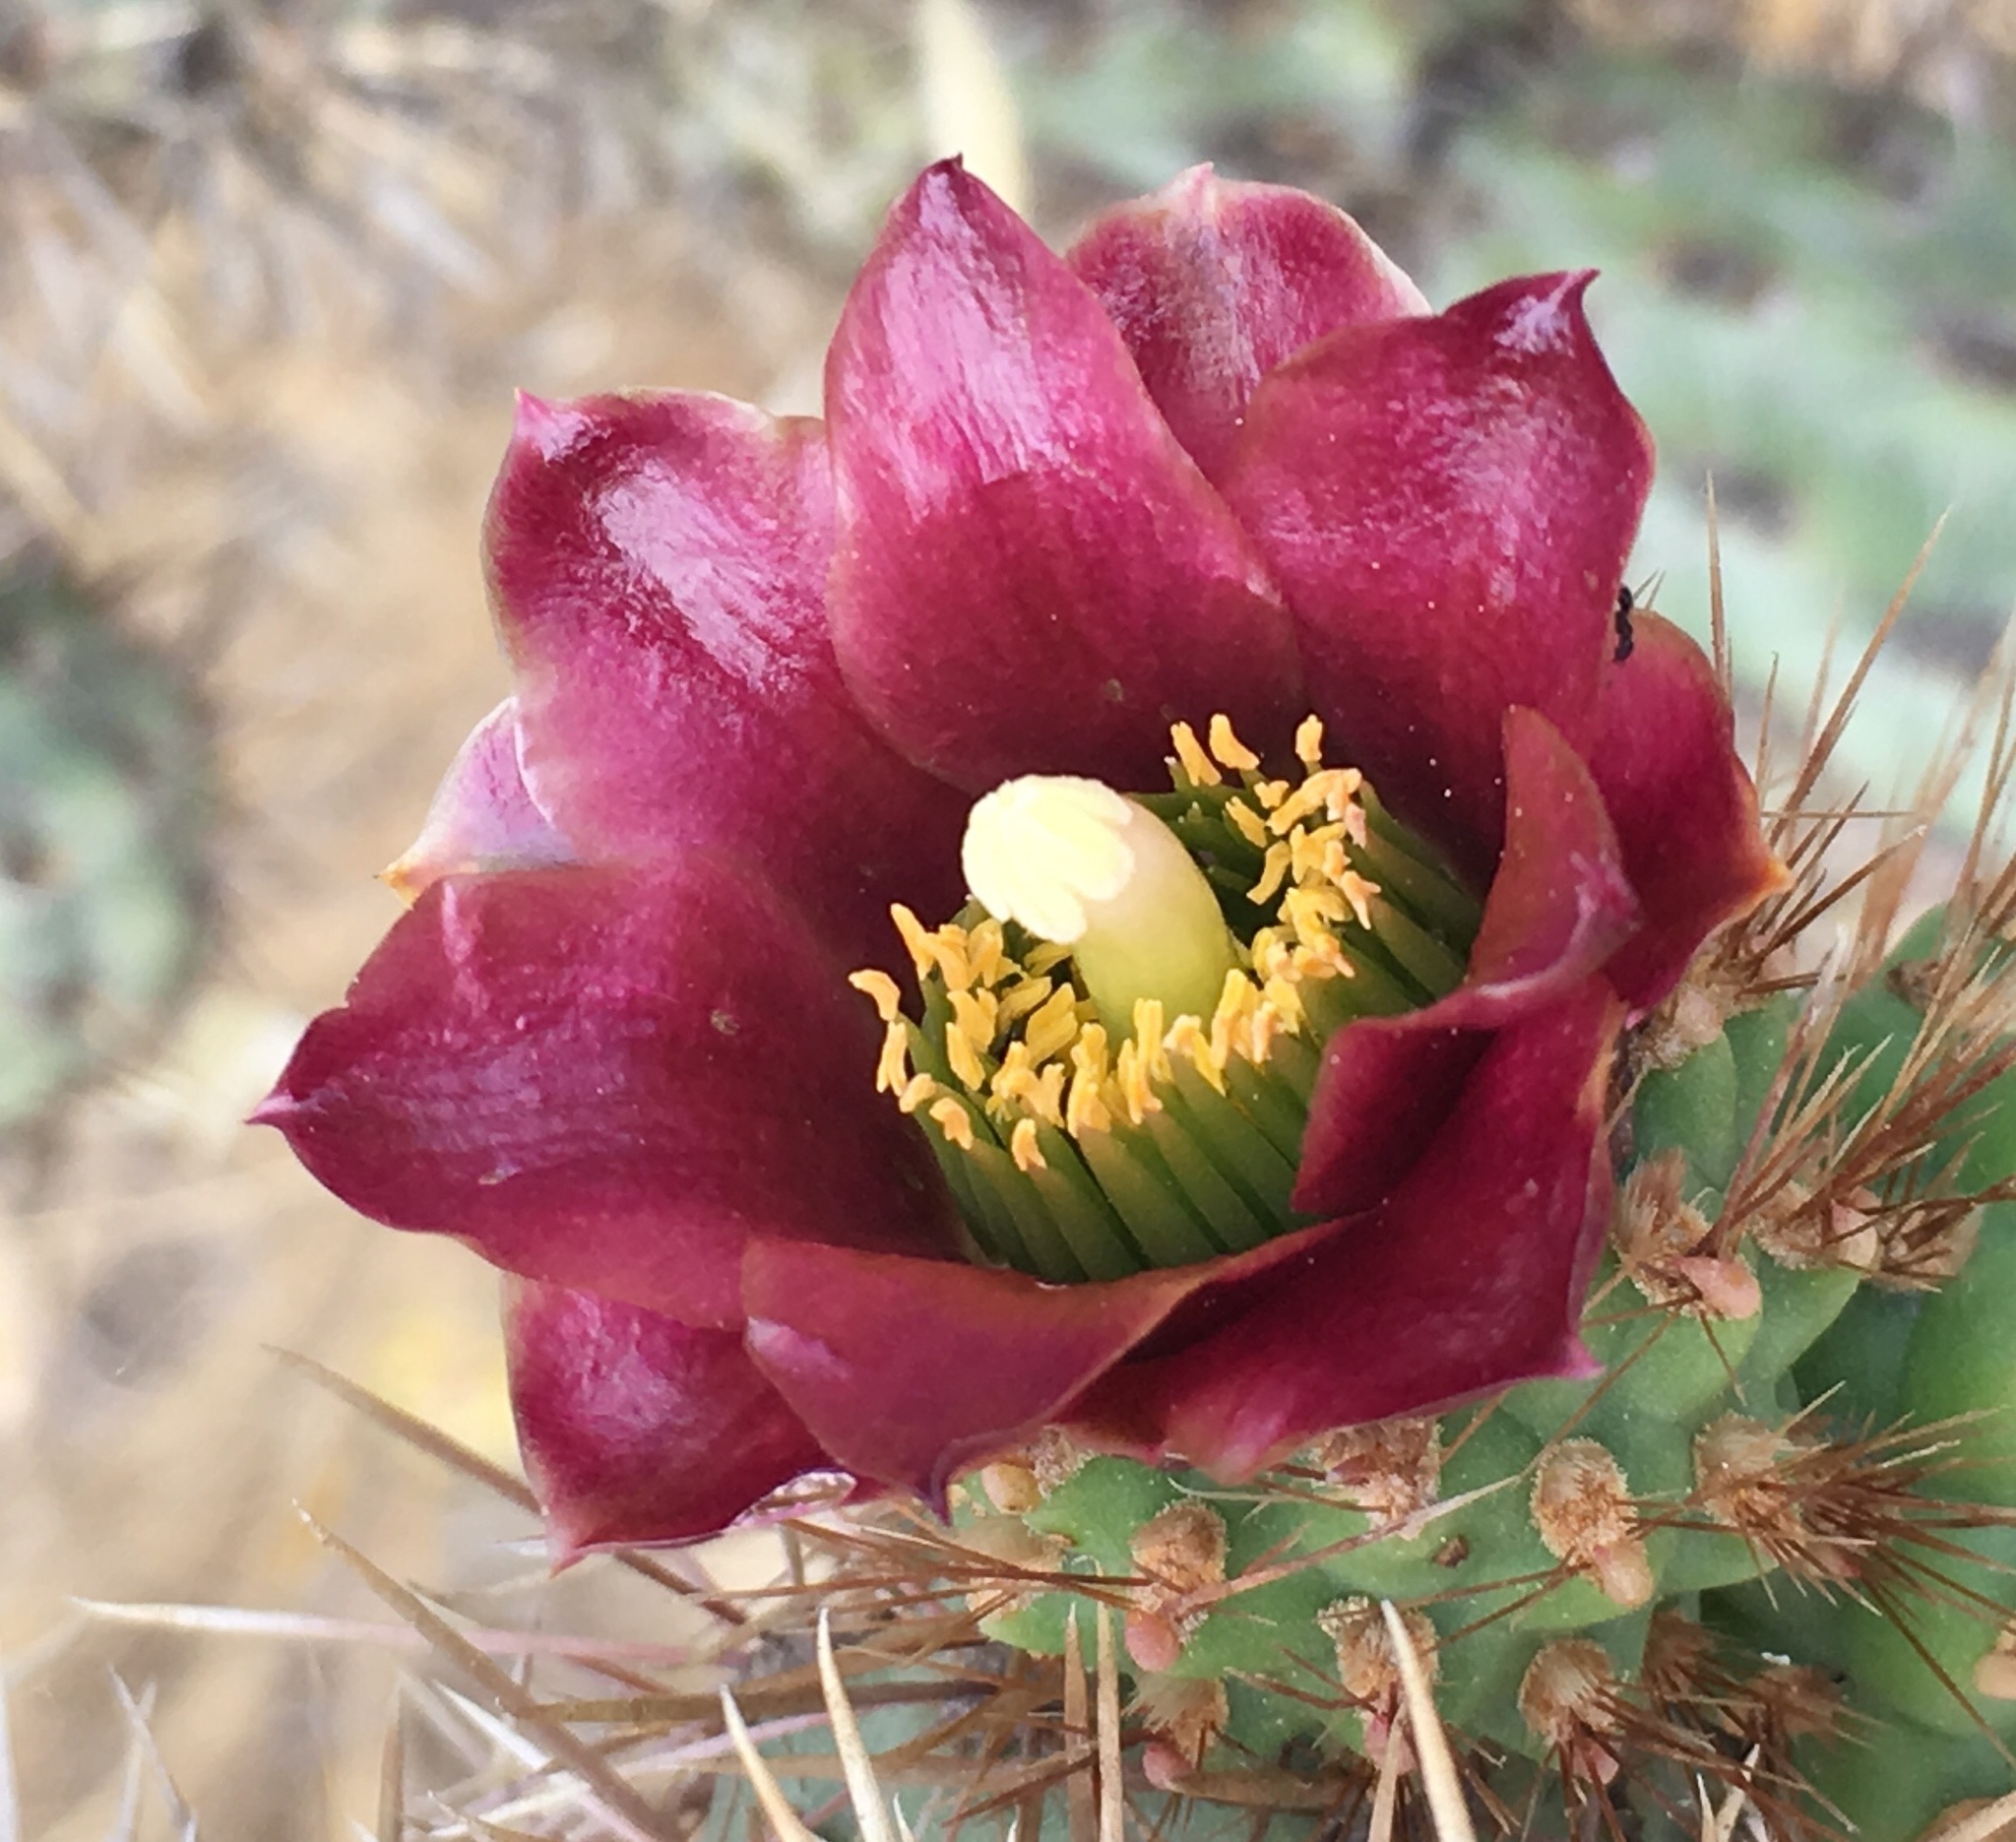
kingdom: Plantae
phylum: Tracheophyta
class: Magnoliopsida
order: Caryophyllales
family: Cactaceae
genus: Cylindropuntia
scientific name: Cylindropuntia prolifera
